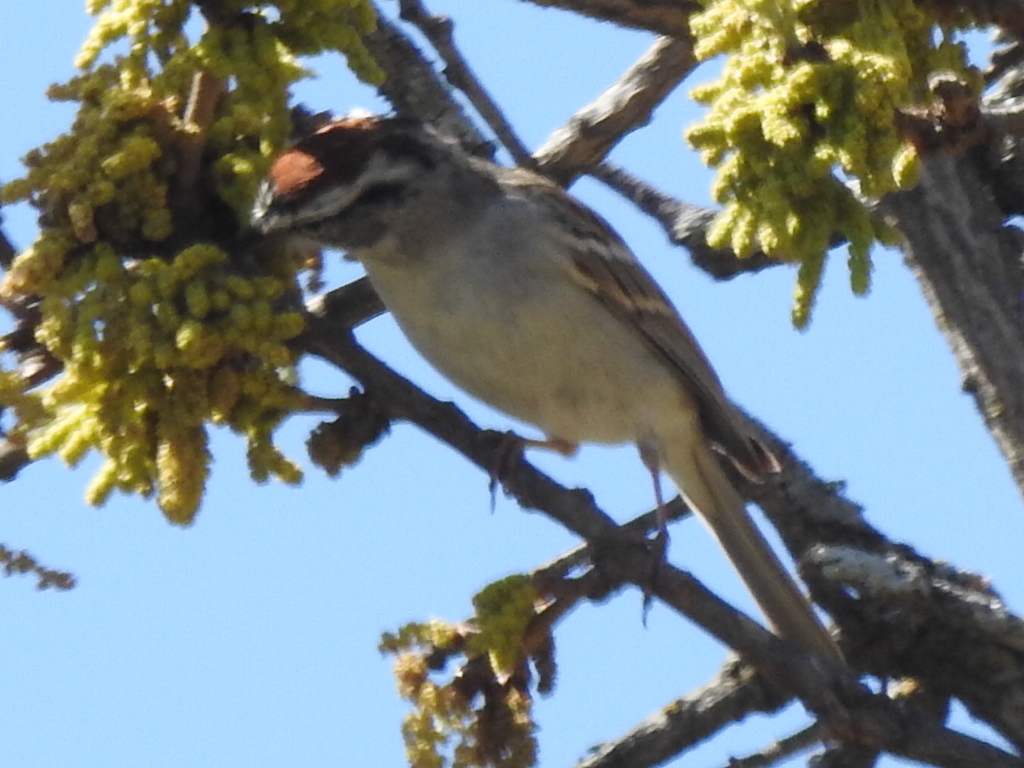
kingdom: Animalia
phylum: Chordata
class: Aves
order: Passeriformes
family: Passerellidae
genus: Spizella
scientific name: Spizella passerina
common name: Chipping sparrow
